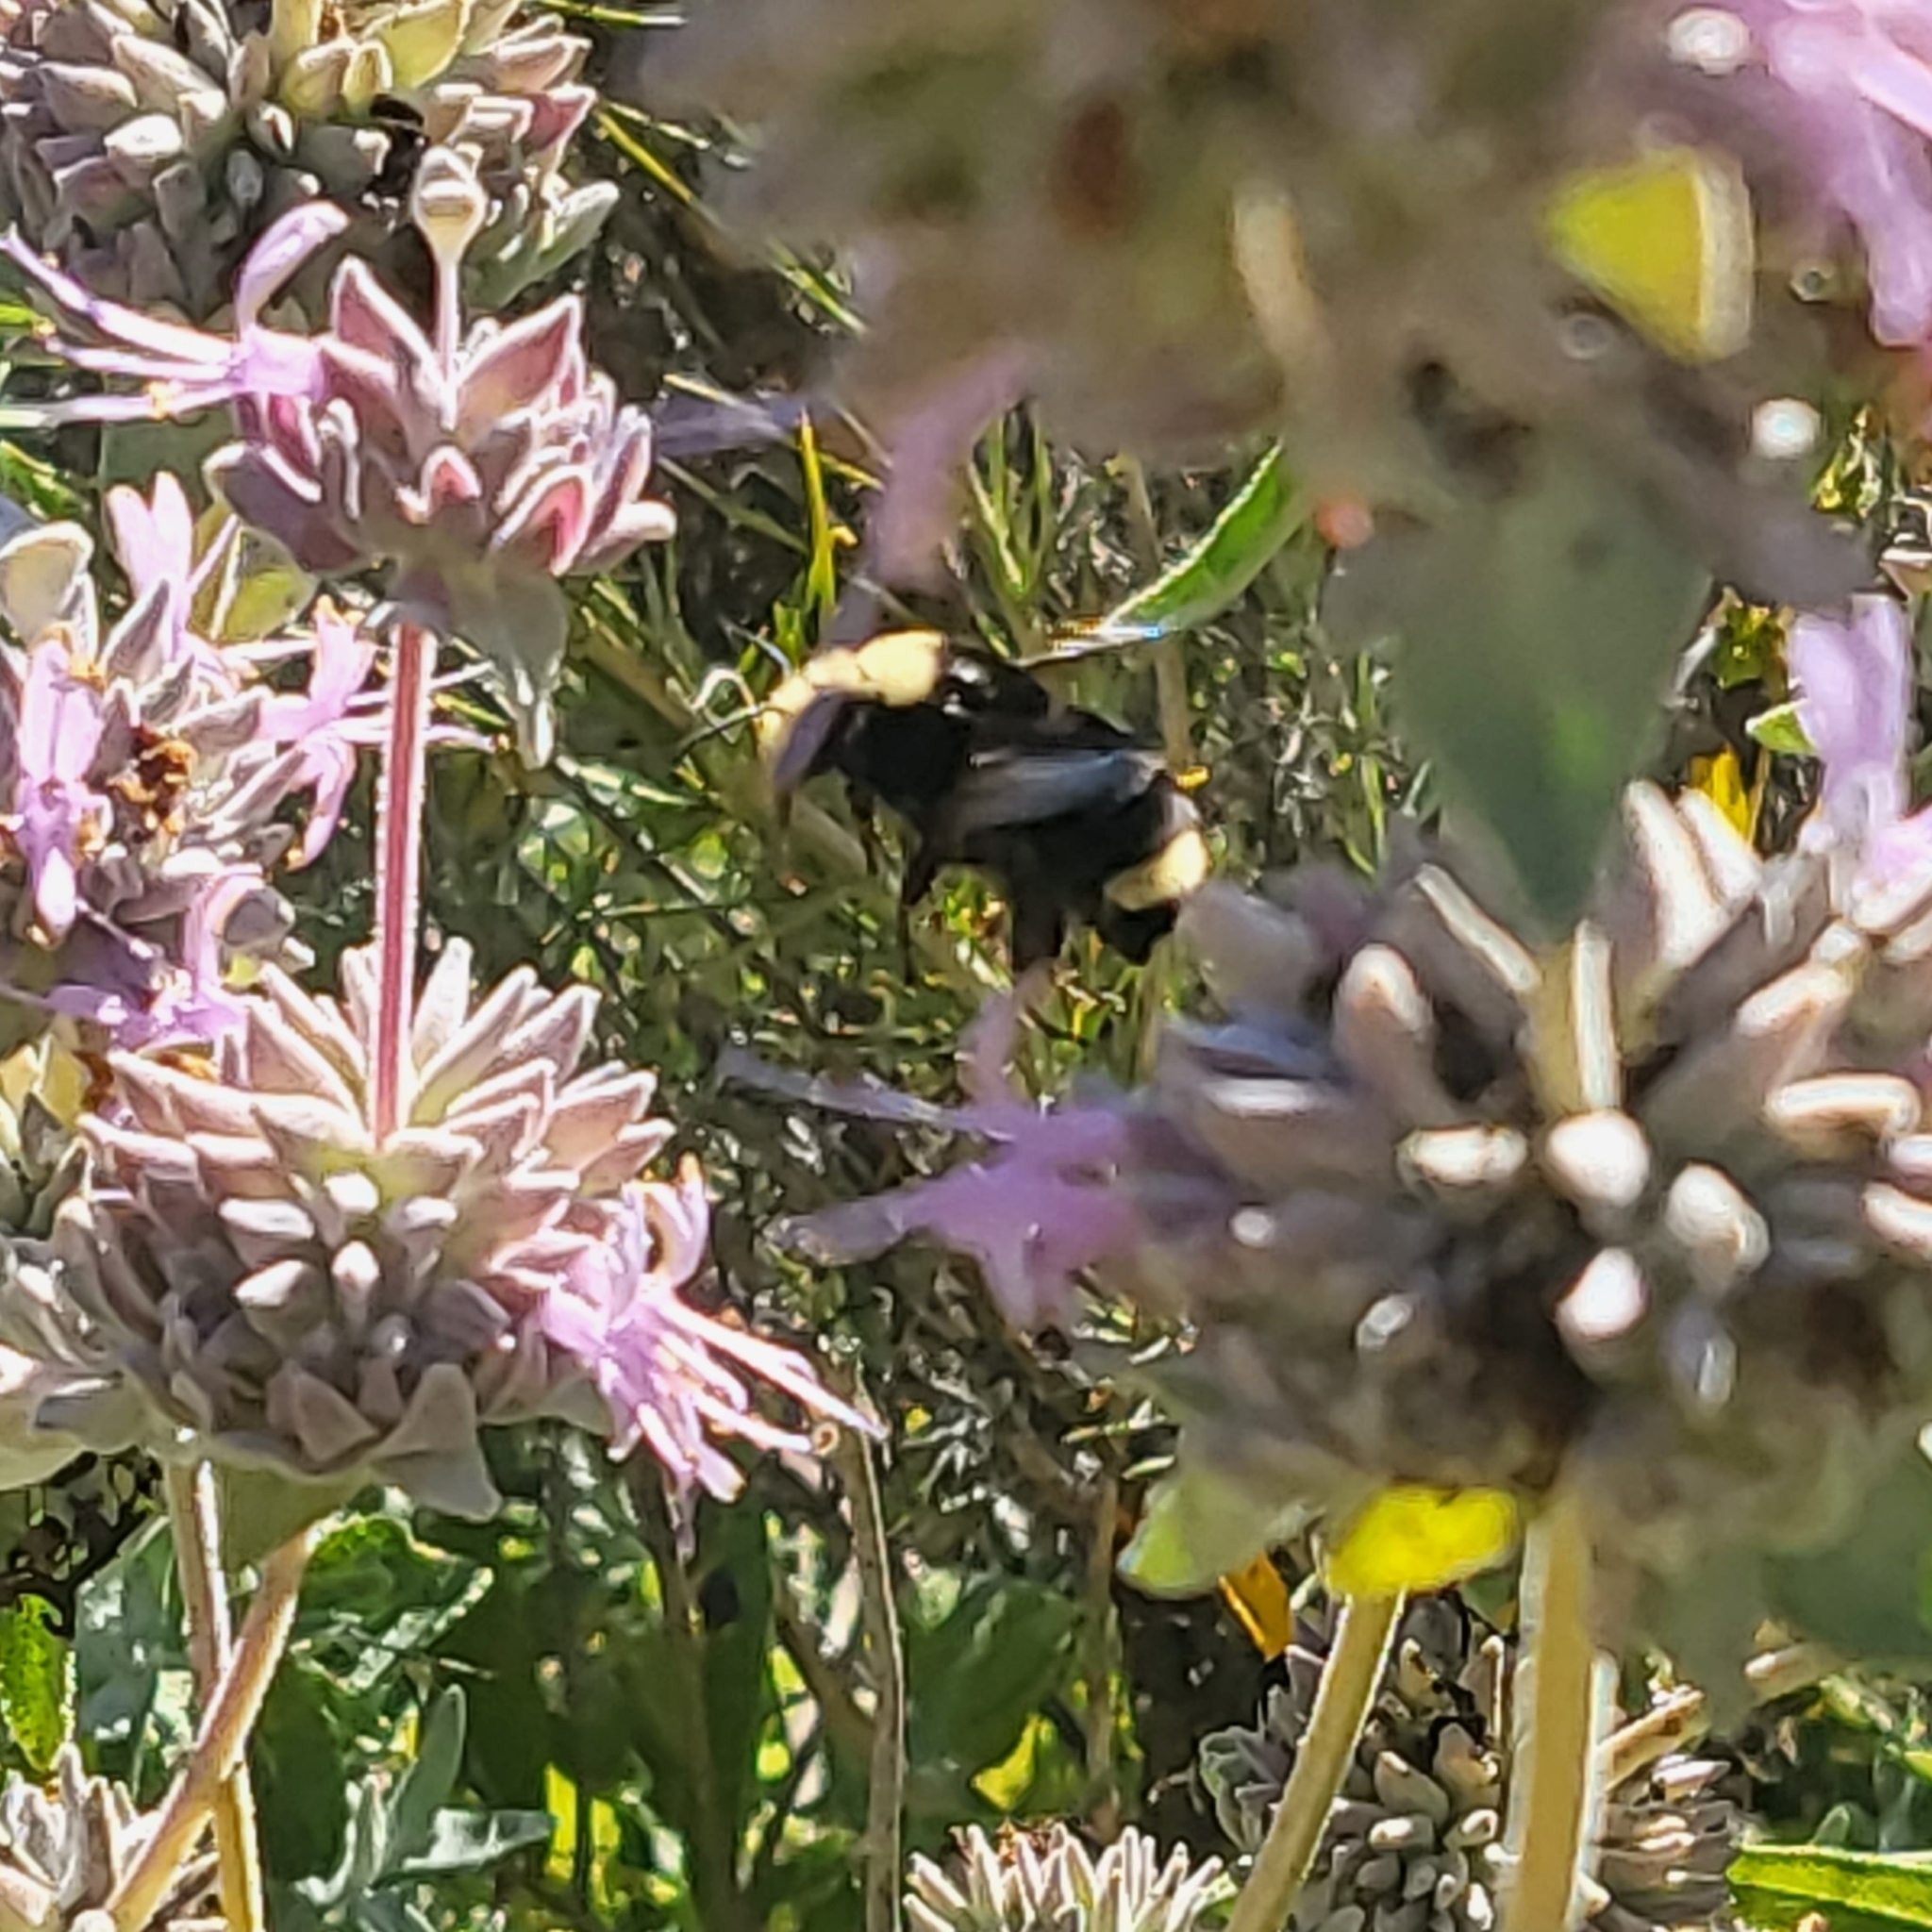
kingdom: Animalia
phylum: Arthropoda
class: Insecta
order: Hymenoptera
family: Apidae
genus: Bombus
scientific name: Bombus vosnesenskii
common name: Vosnesensky bumble bee
